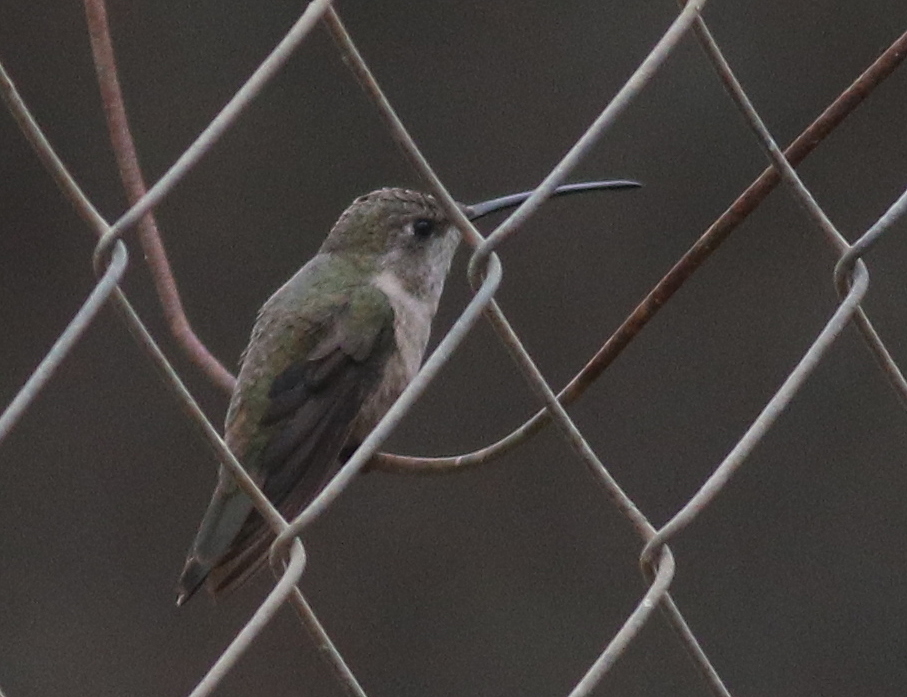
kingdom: Animalia
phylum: Chordata
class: Aves
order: Apodiformes
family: Trochilidae
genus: Rhodopis
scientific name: Rhodopis vesper
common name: Oasis hummingbird
